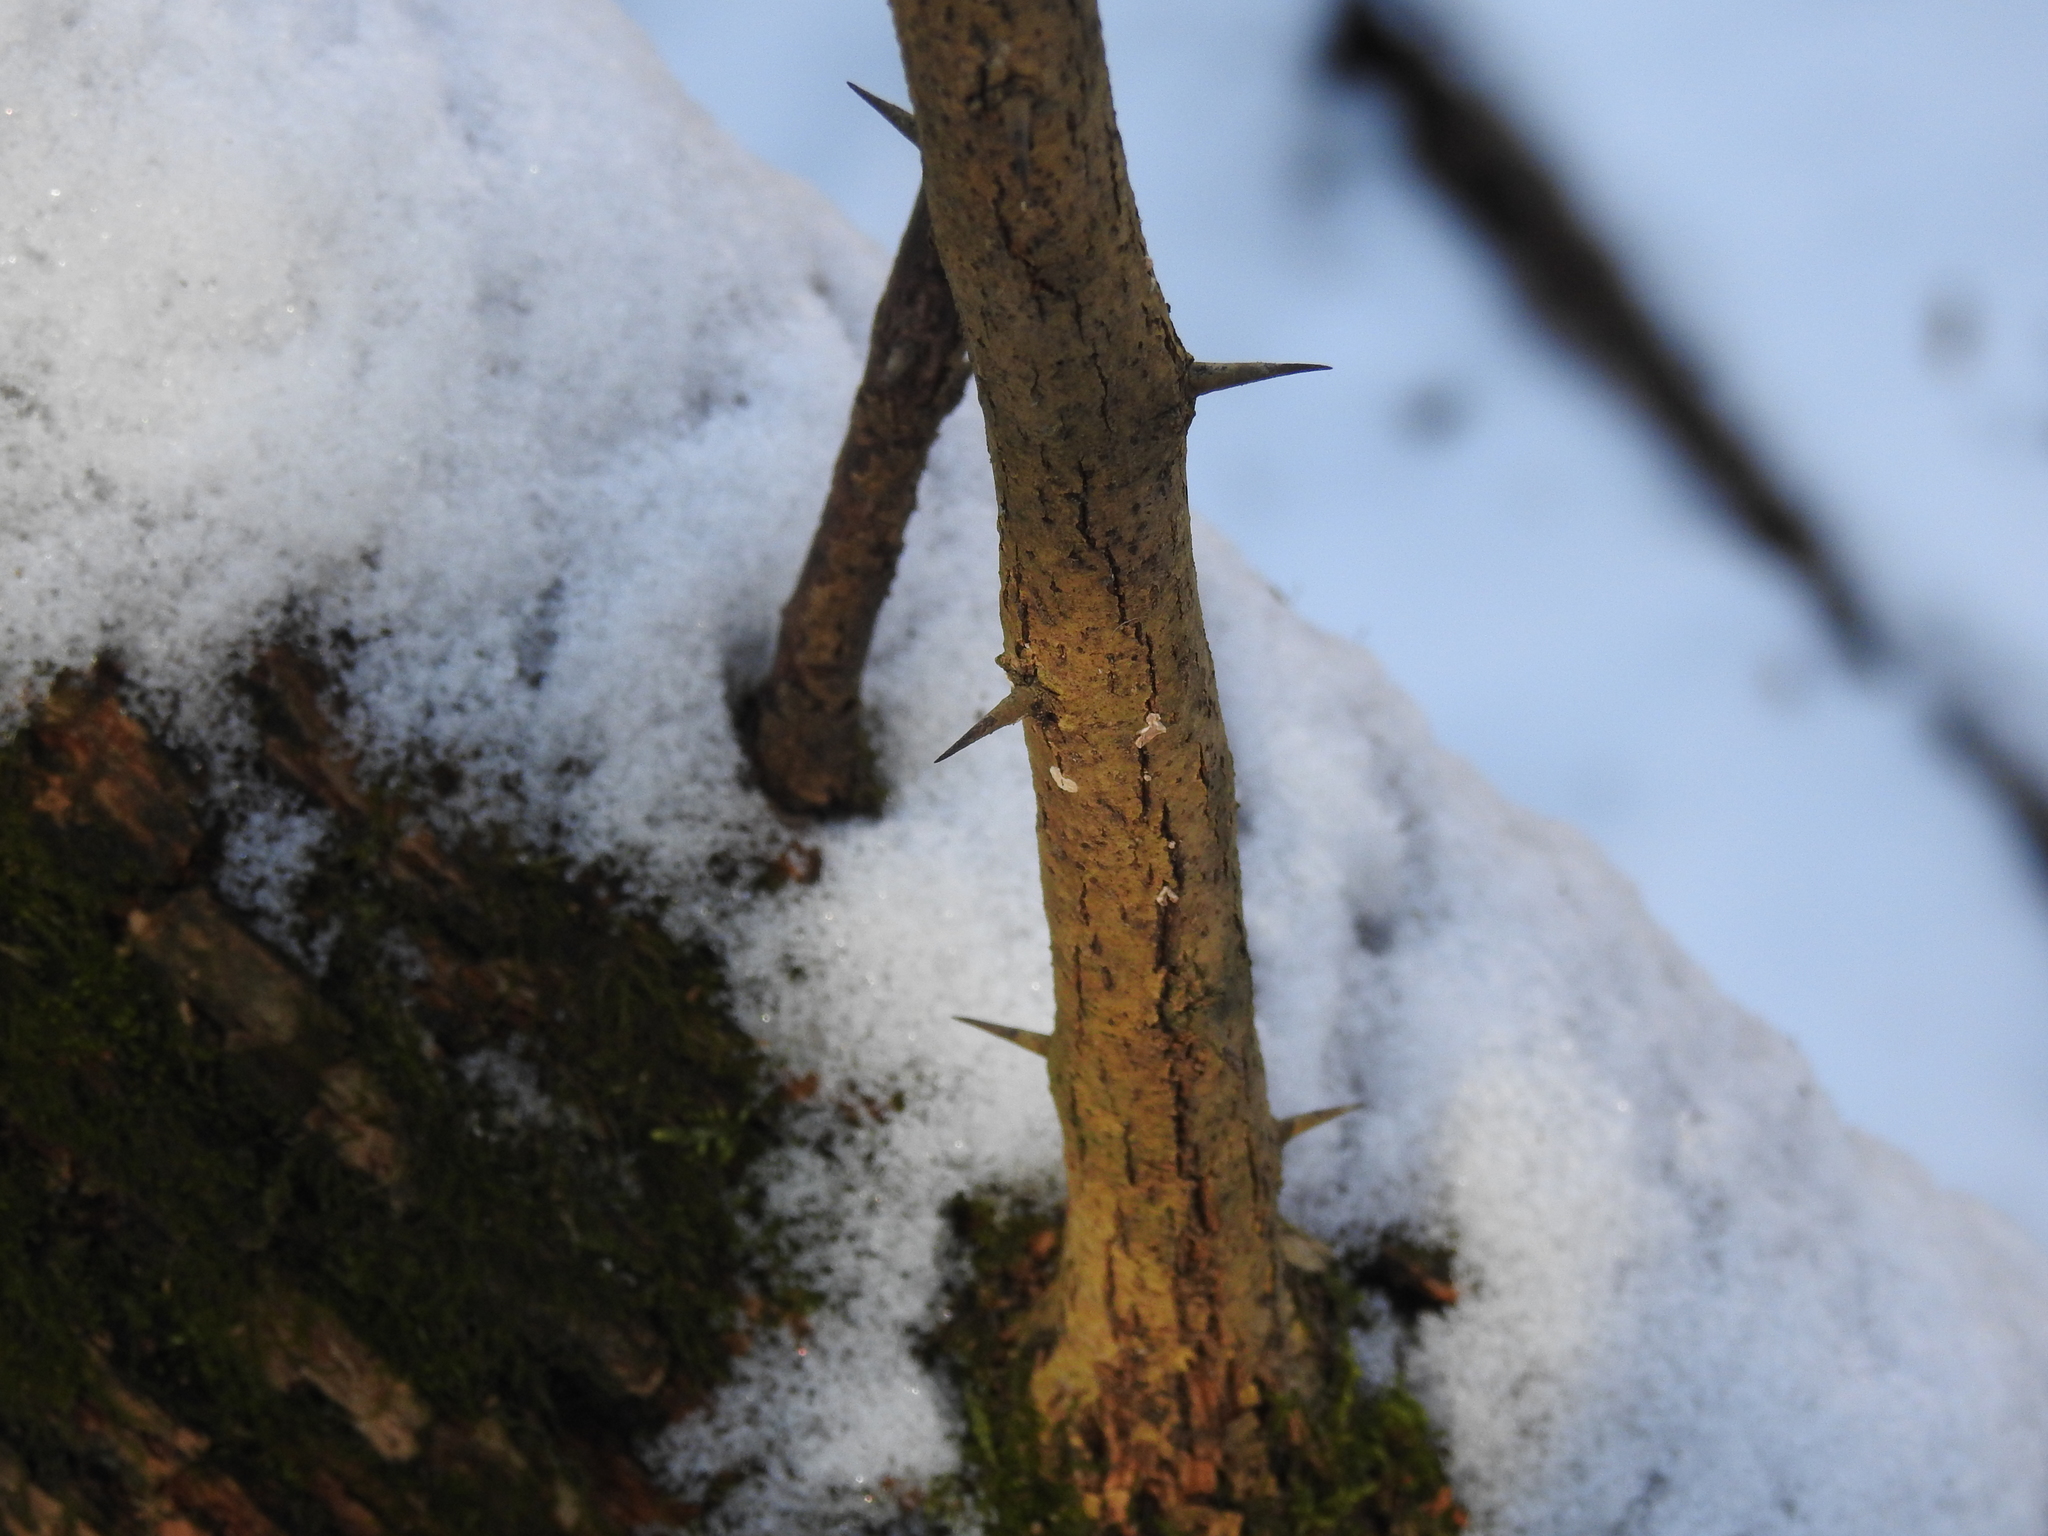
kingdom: Plantae
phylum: Tracheophyta
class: Magnoliopsida
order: Rosales
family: Moraceae
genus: Maclura
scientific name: Maclura pomifera
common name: Osage-orange
